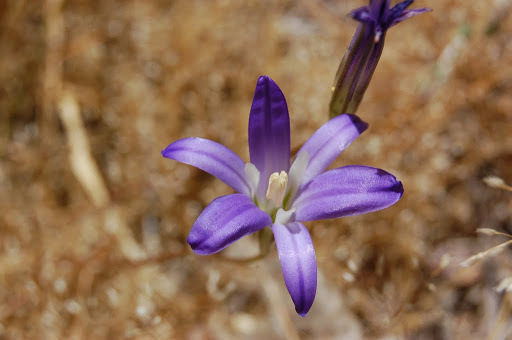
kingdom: Plantae
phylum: Tracheophyta
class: Liliopsida
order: Asparagales
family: Asparagaceae
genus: Brodiaea
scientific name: Brodiaea elegans
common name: Elegant cluster-lily
